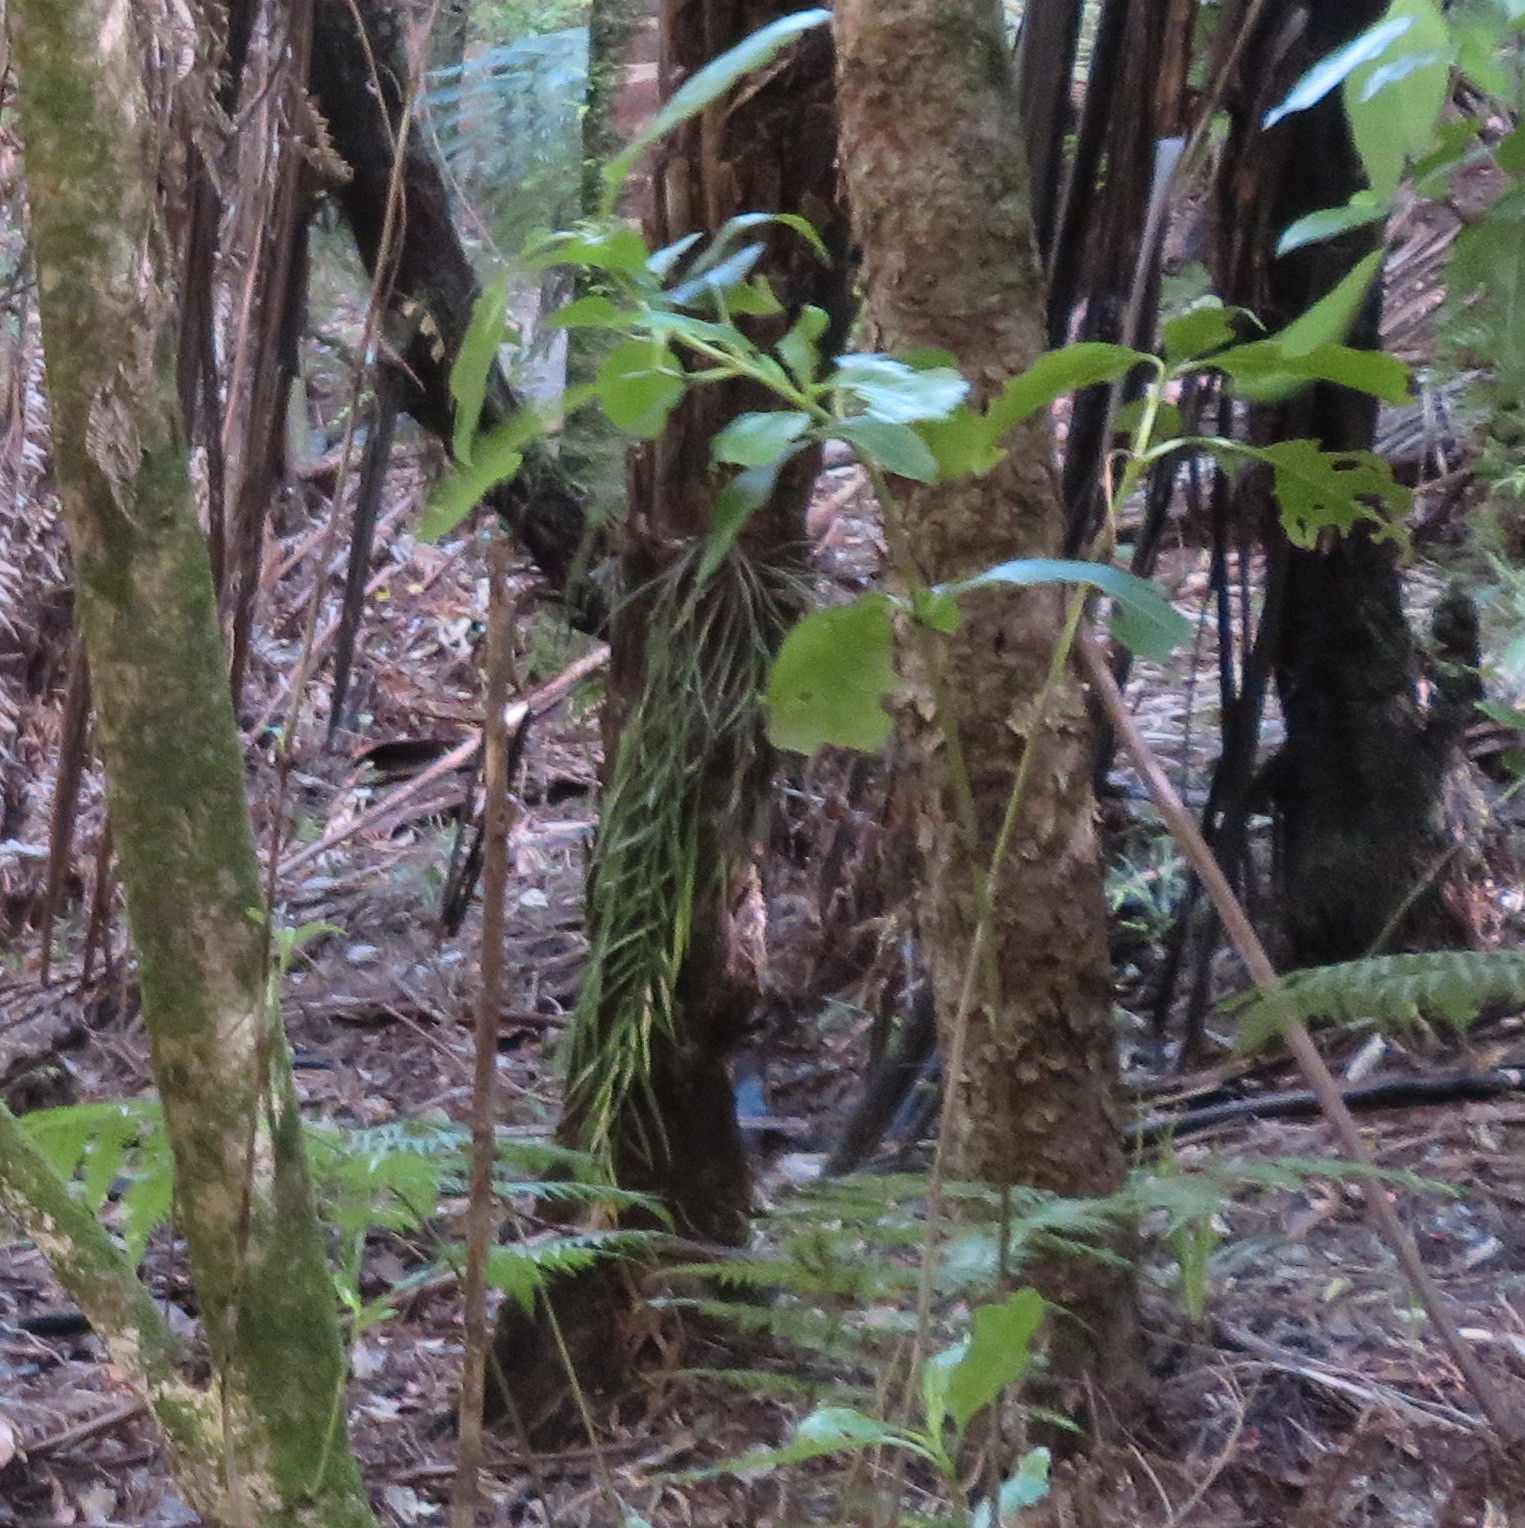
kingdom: Plantae
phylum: Tracheophyta
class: Polypodiopsida
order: Polypodiales
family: Aspleniaceae
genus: Asplenium
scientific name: Asplenium flaccidum
